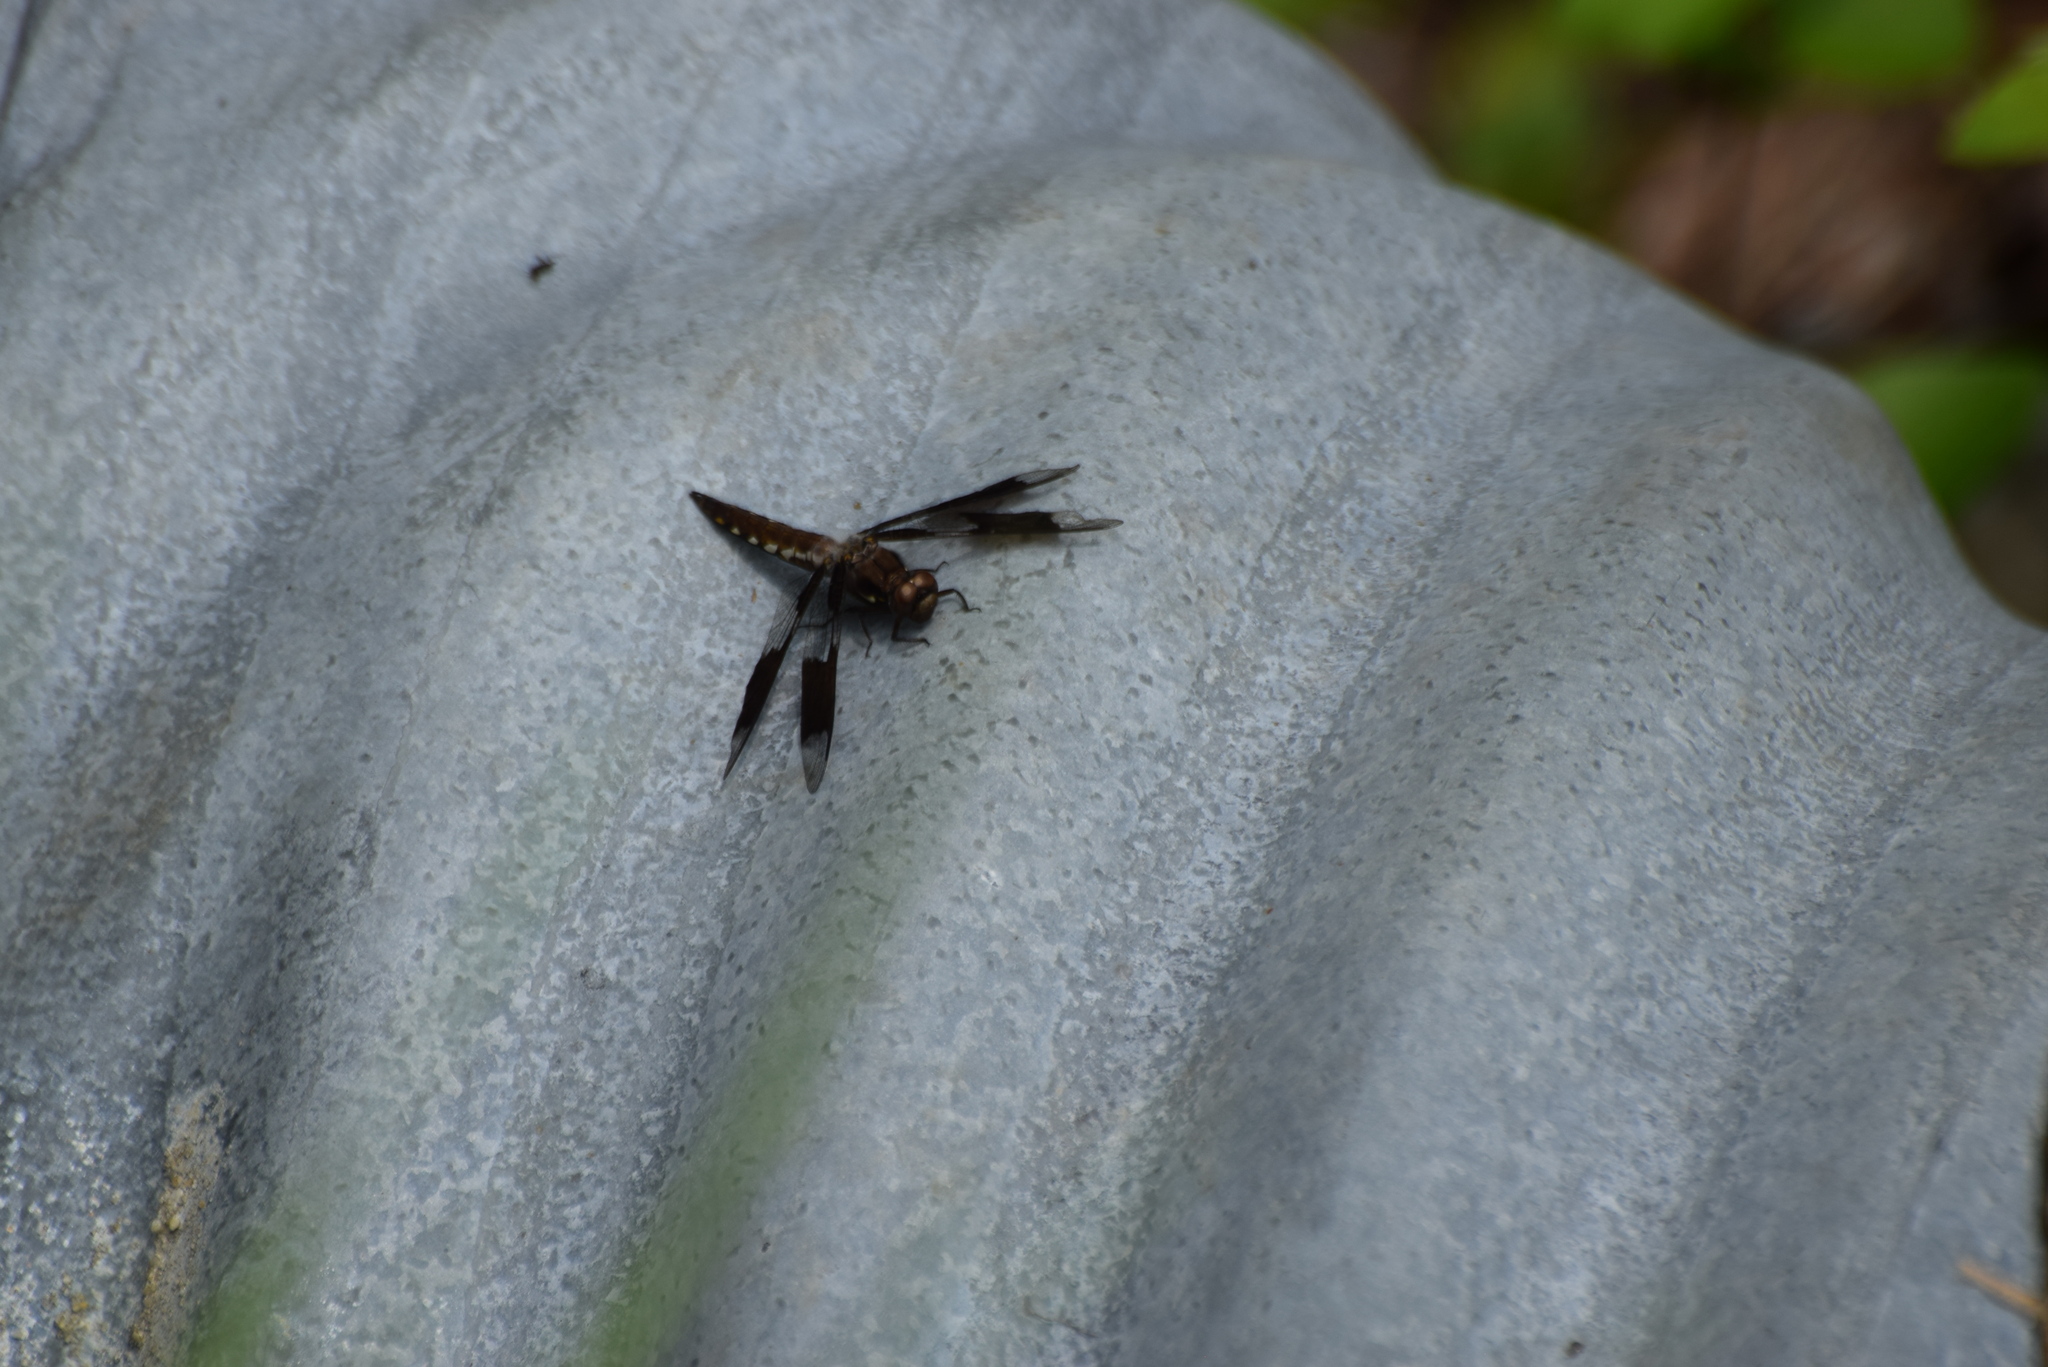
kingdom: Animalia
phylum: Arthropoda
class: Insecta
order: Odonata
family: Libellulidae
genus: Plathemis
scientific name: Plathemis lydia
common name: Common whitetail
